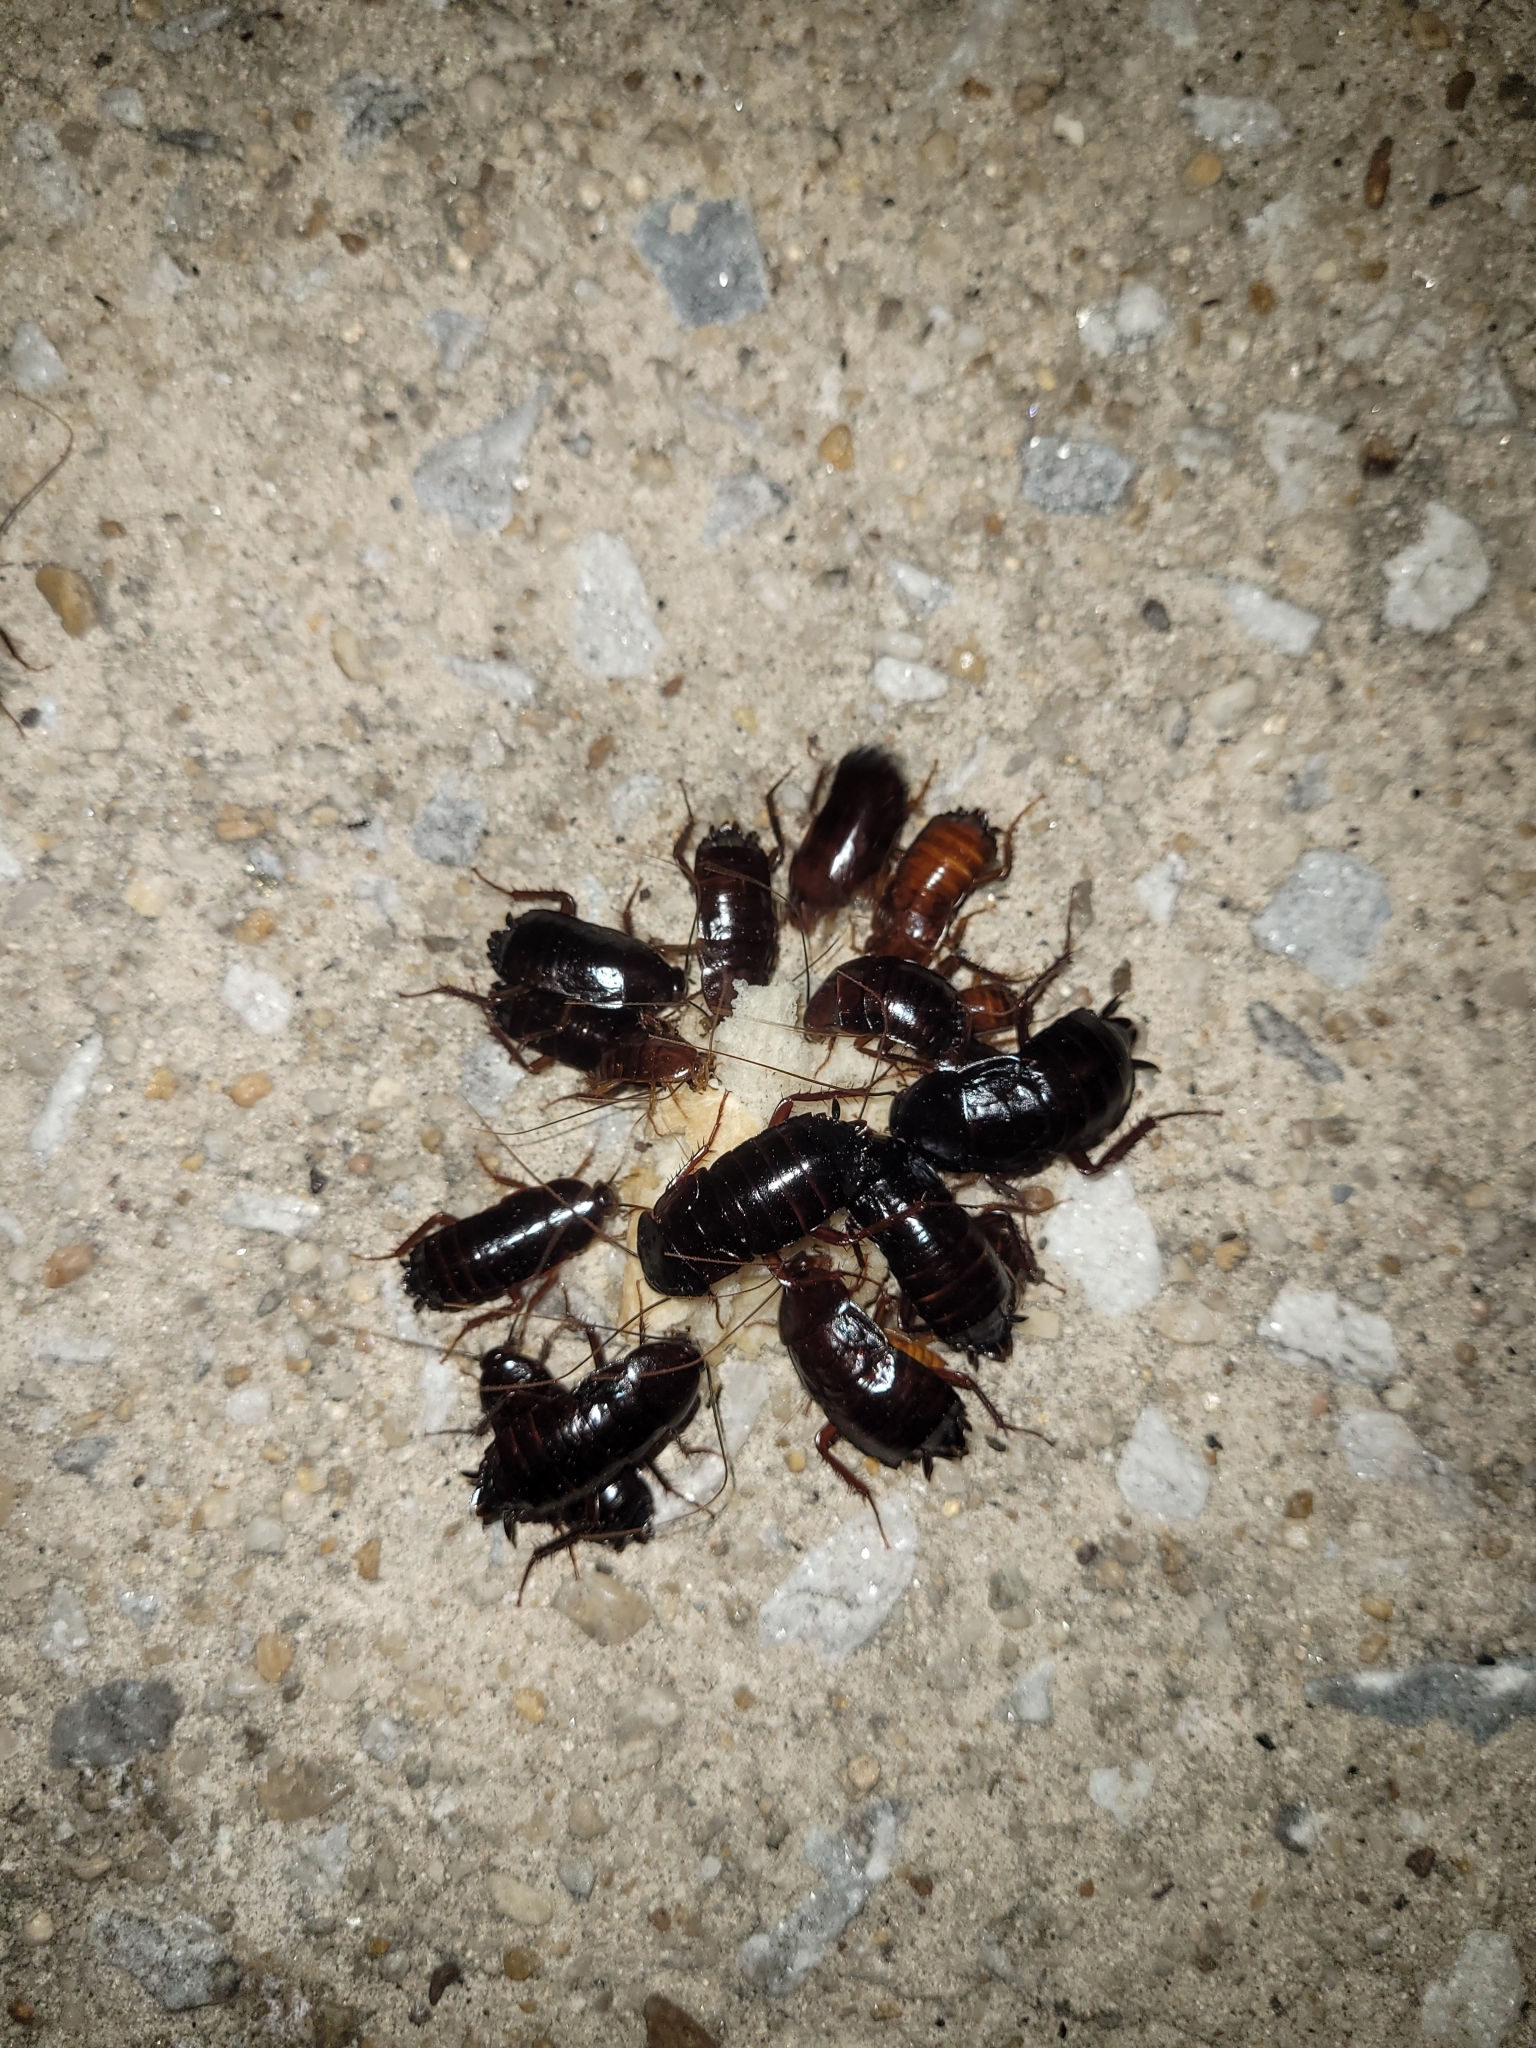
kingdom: Animalia
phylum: Arthropoda
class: Insecta
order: Blattodea
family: Blattidae
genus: Blatta
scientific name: Blatta orientalis
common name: Oriental cockroach
